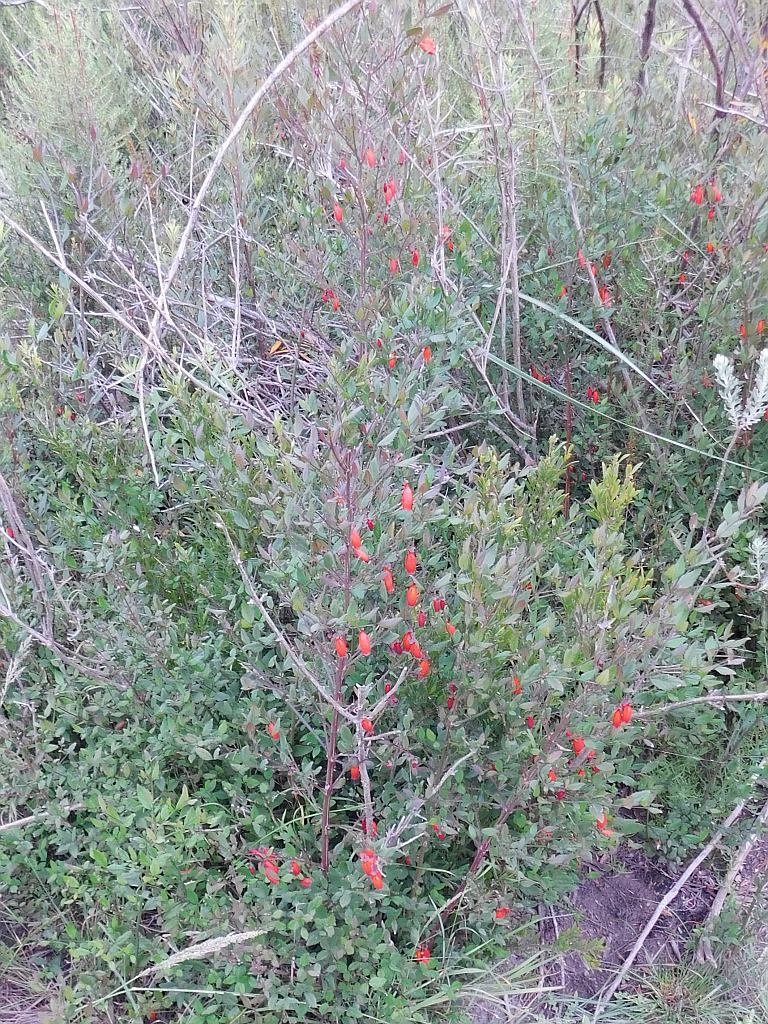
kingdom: Plantae
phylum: Tracheophyta
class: Magnoliopsida
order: Lamiales
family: Stilbaceae
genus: Halleria
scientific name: Halleria elliptica
